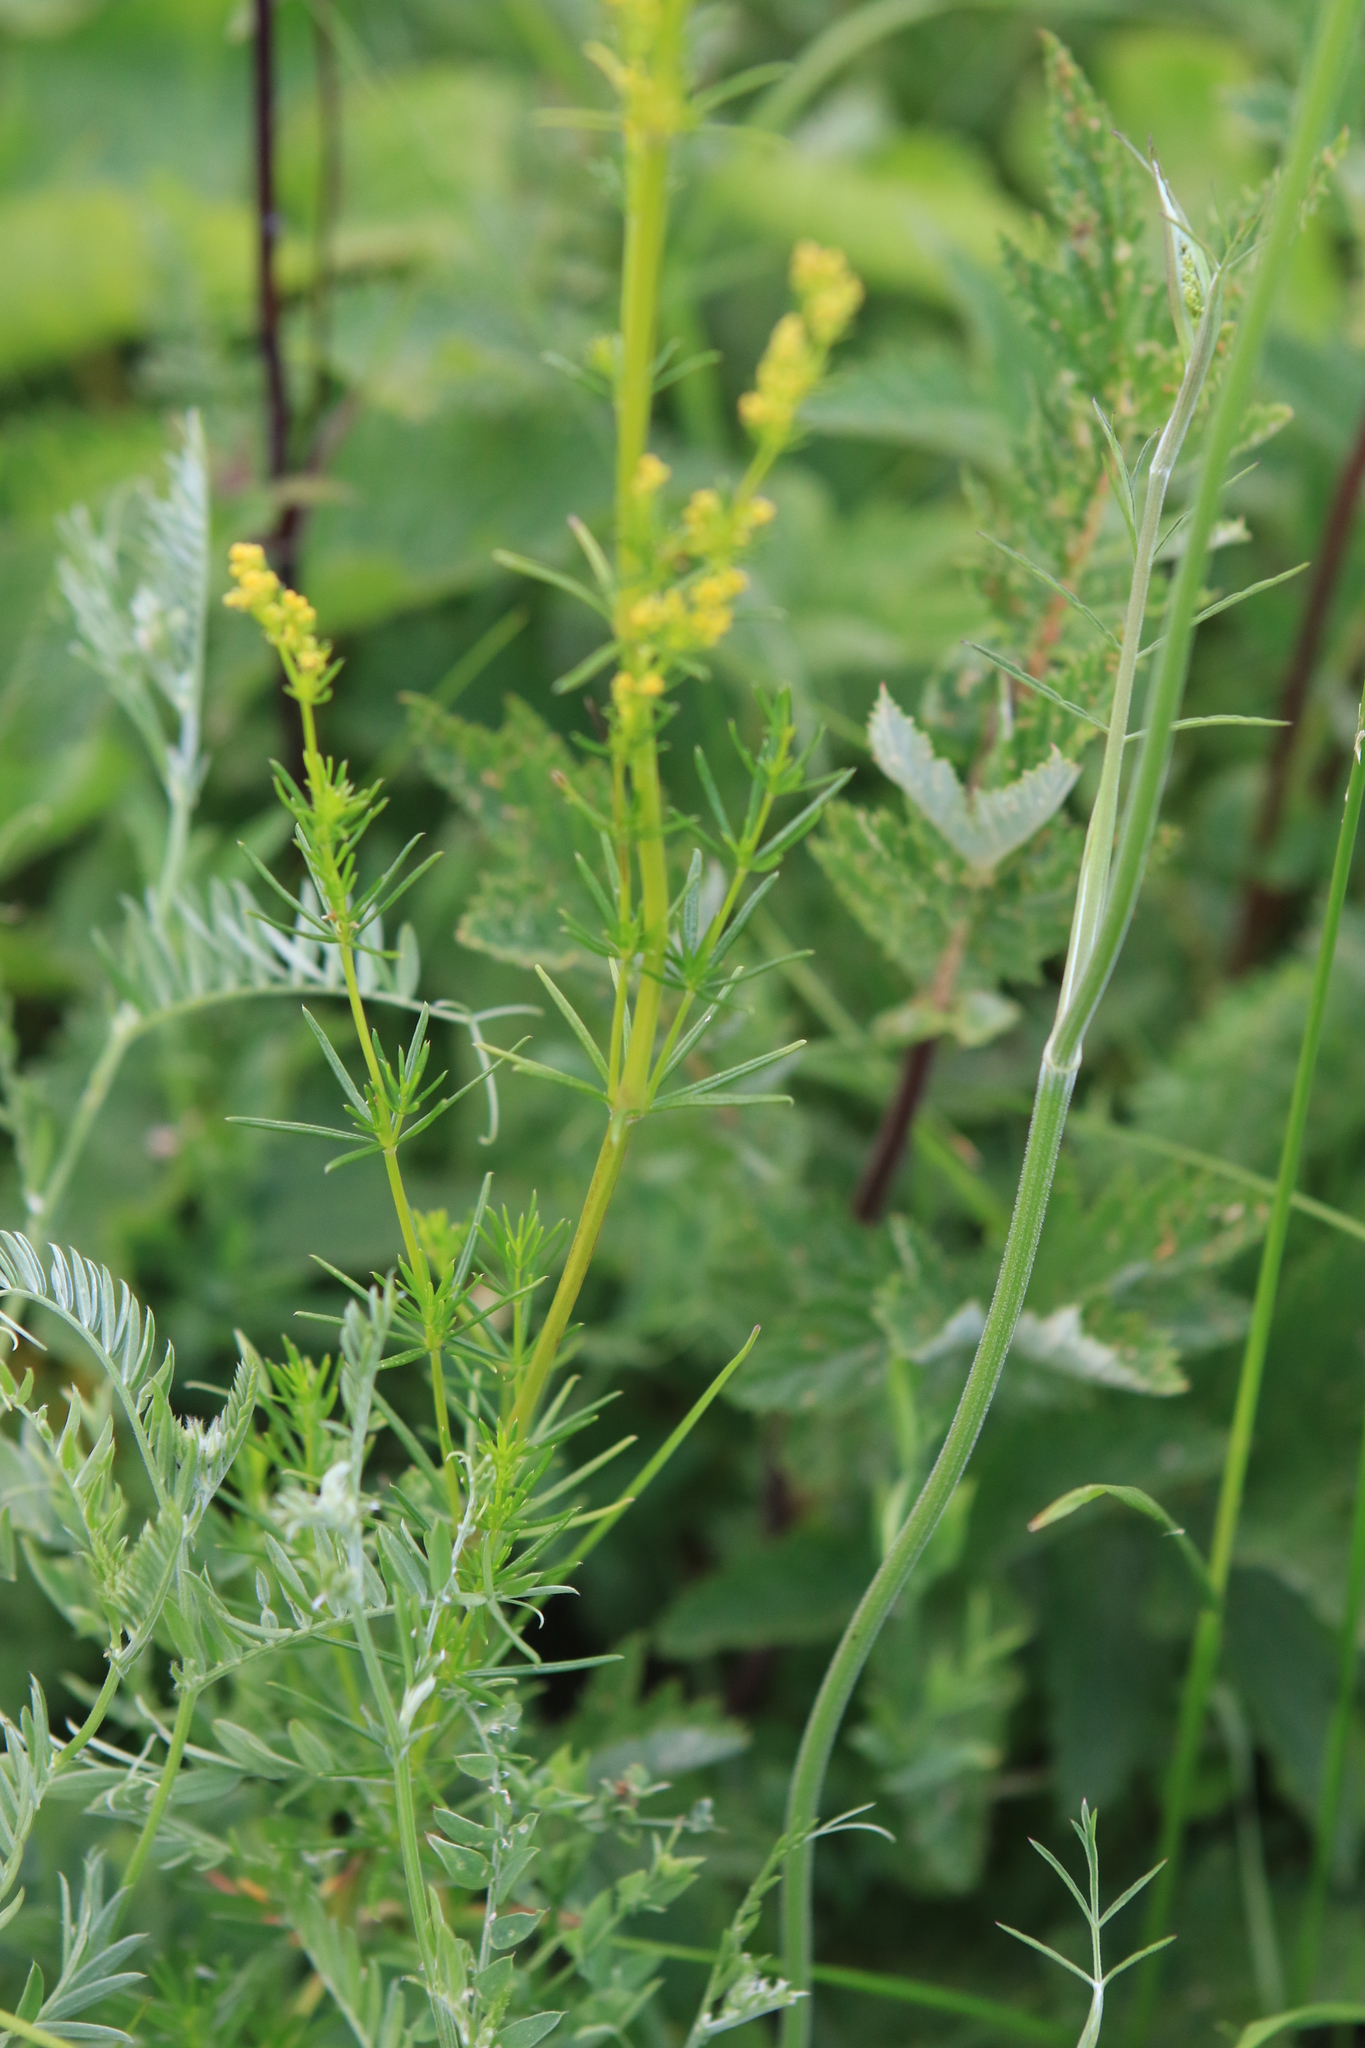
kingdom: Plantae
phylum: Tracheophyta
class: Magnoliopsida
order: Gentianales
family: Rubiaceae
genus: Galium
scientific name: Galium verum
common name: Lady's bedstraw
